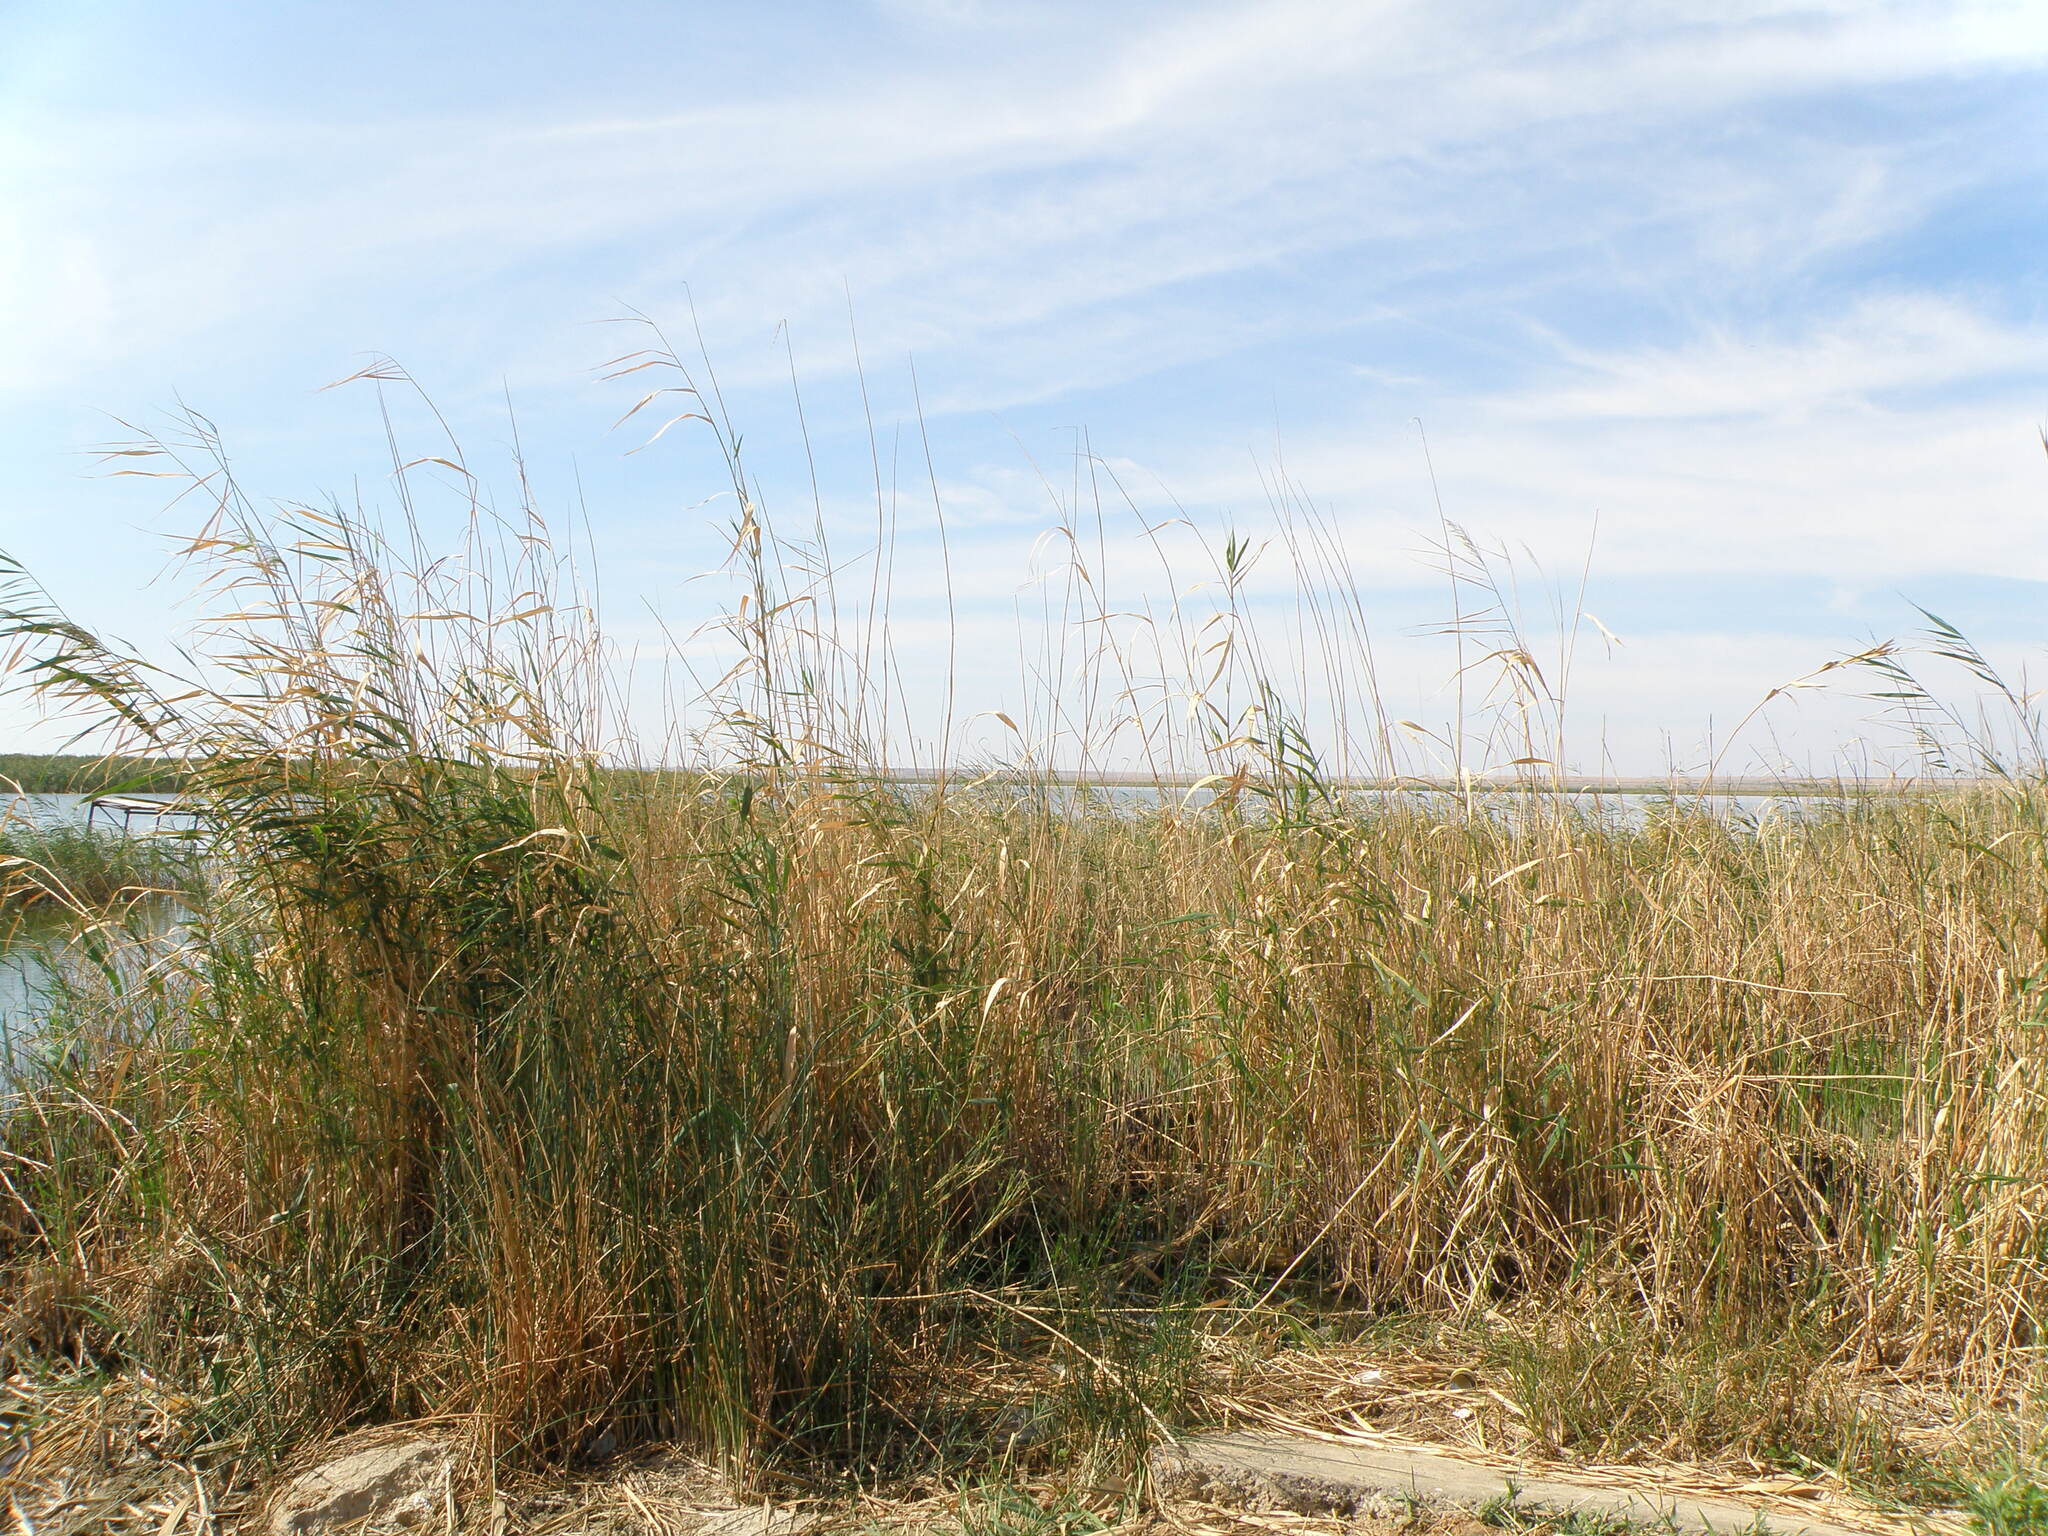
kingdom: Plantae
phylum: Tracheophyta
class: Liliopsida
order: Poales
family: Poaceae
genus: Phragmites
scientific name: Phragmites australis
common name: Common reed
